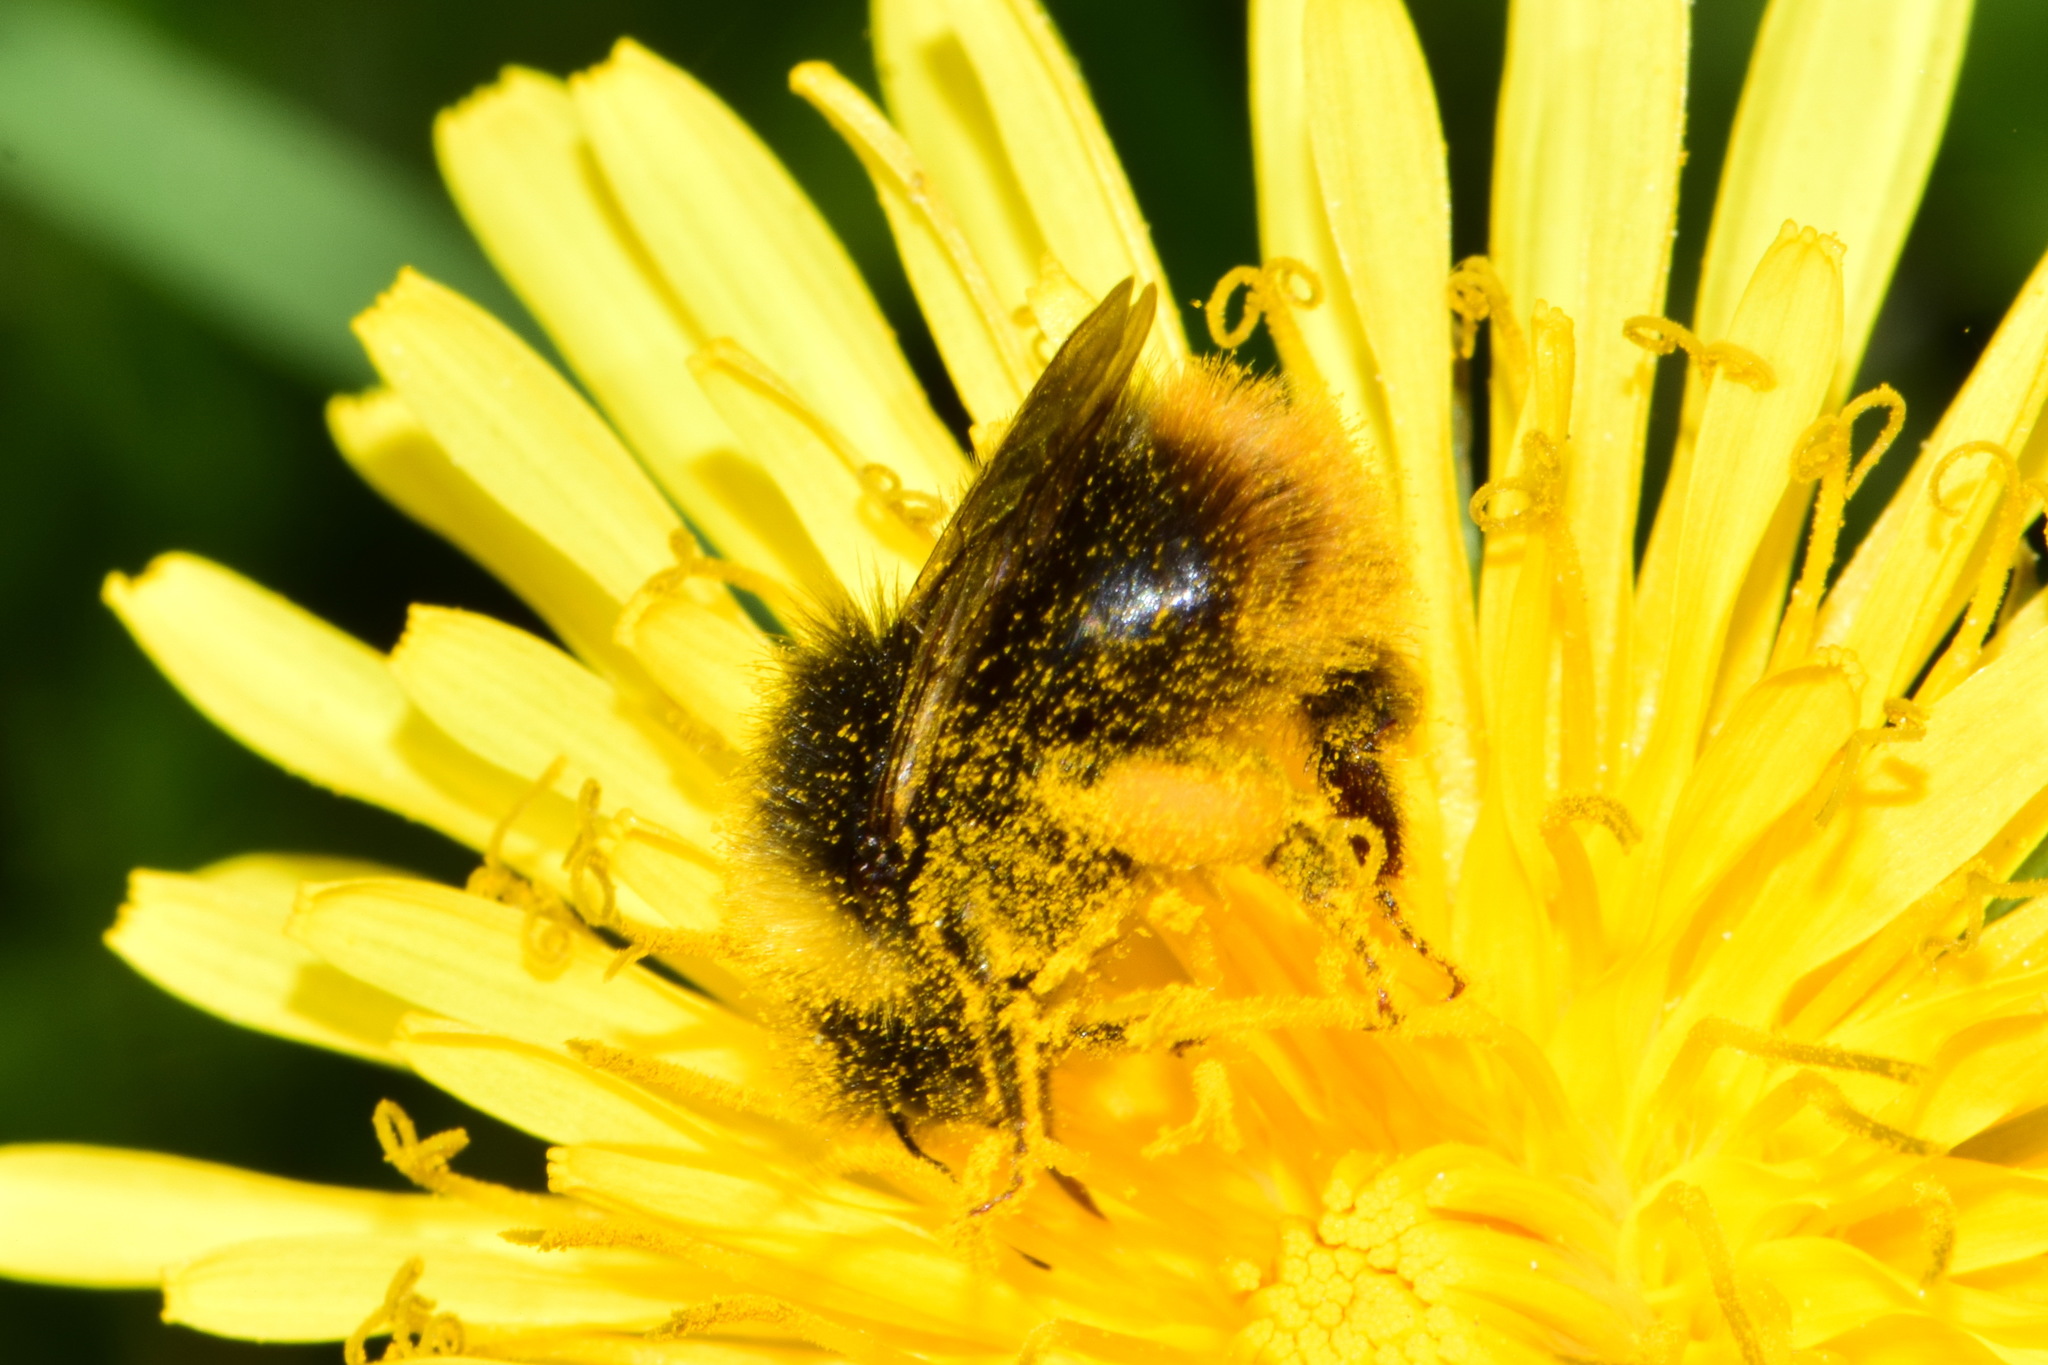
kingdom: Animalia
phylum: Arthropoda
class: Insecta
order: Hymenoptera
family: Apidae
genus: Bombus
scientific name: Bombus pratorum
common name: Early humble-bee
